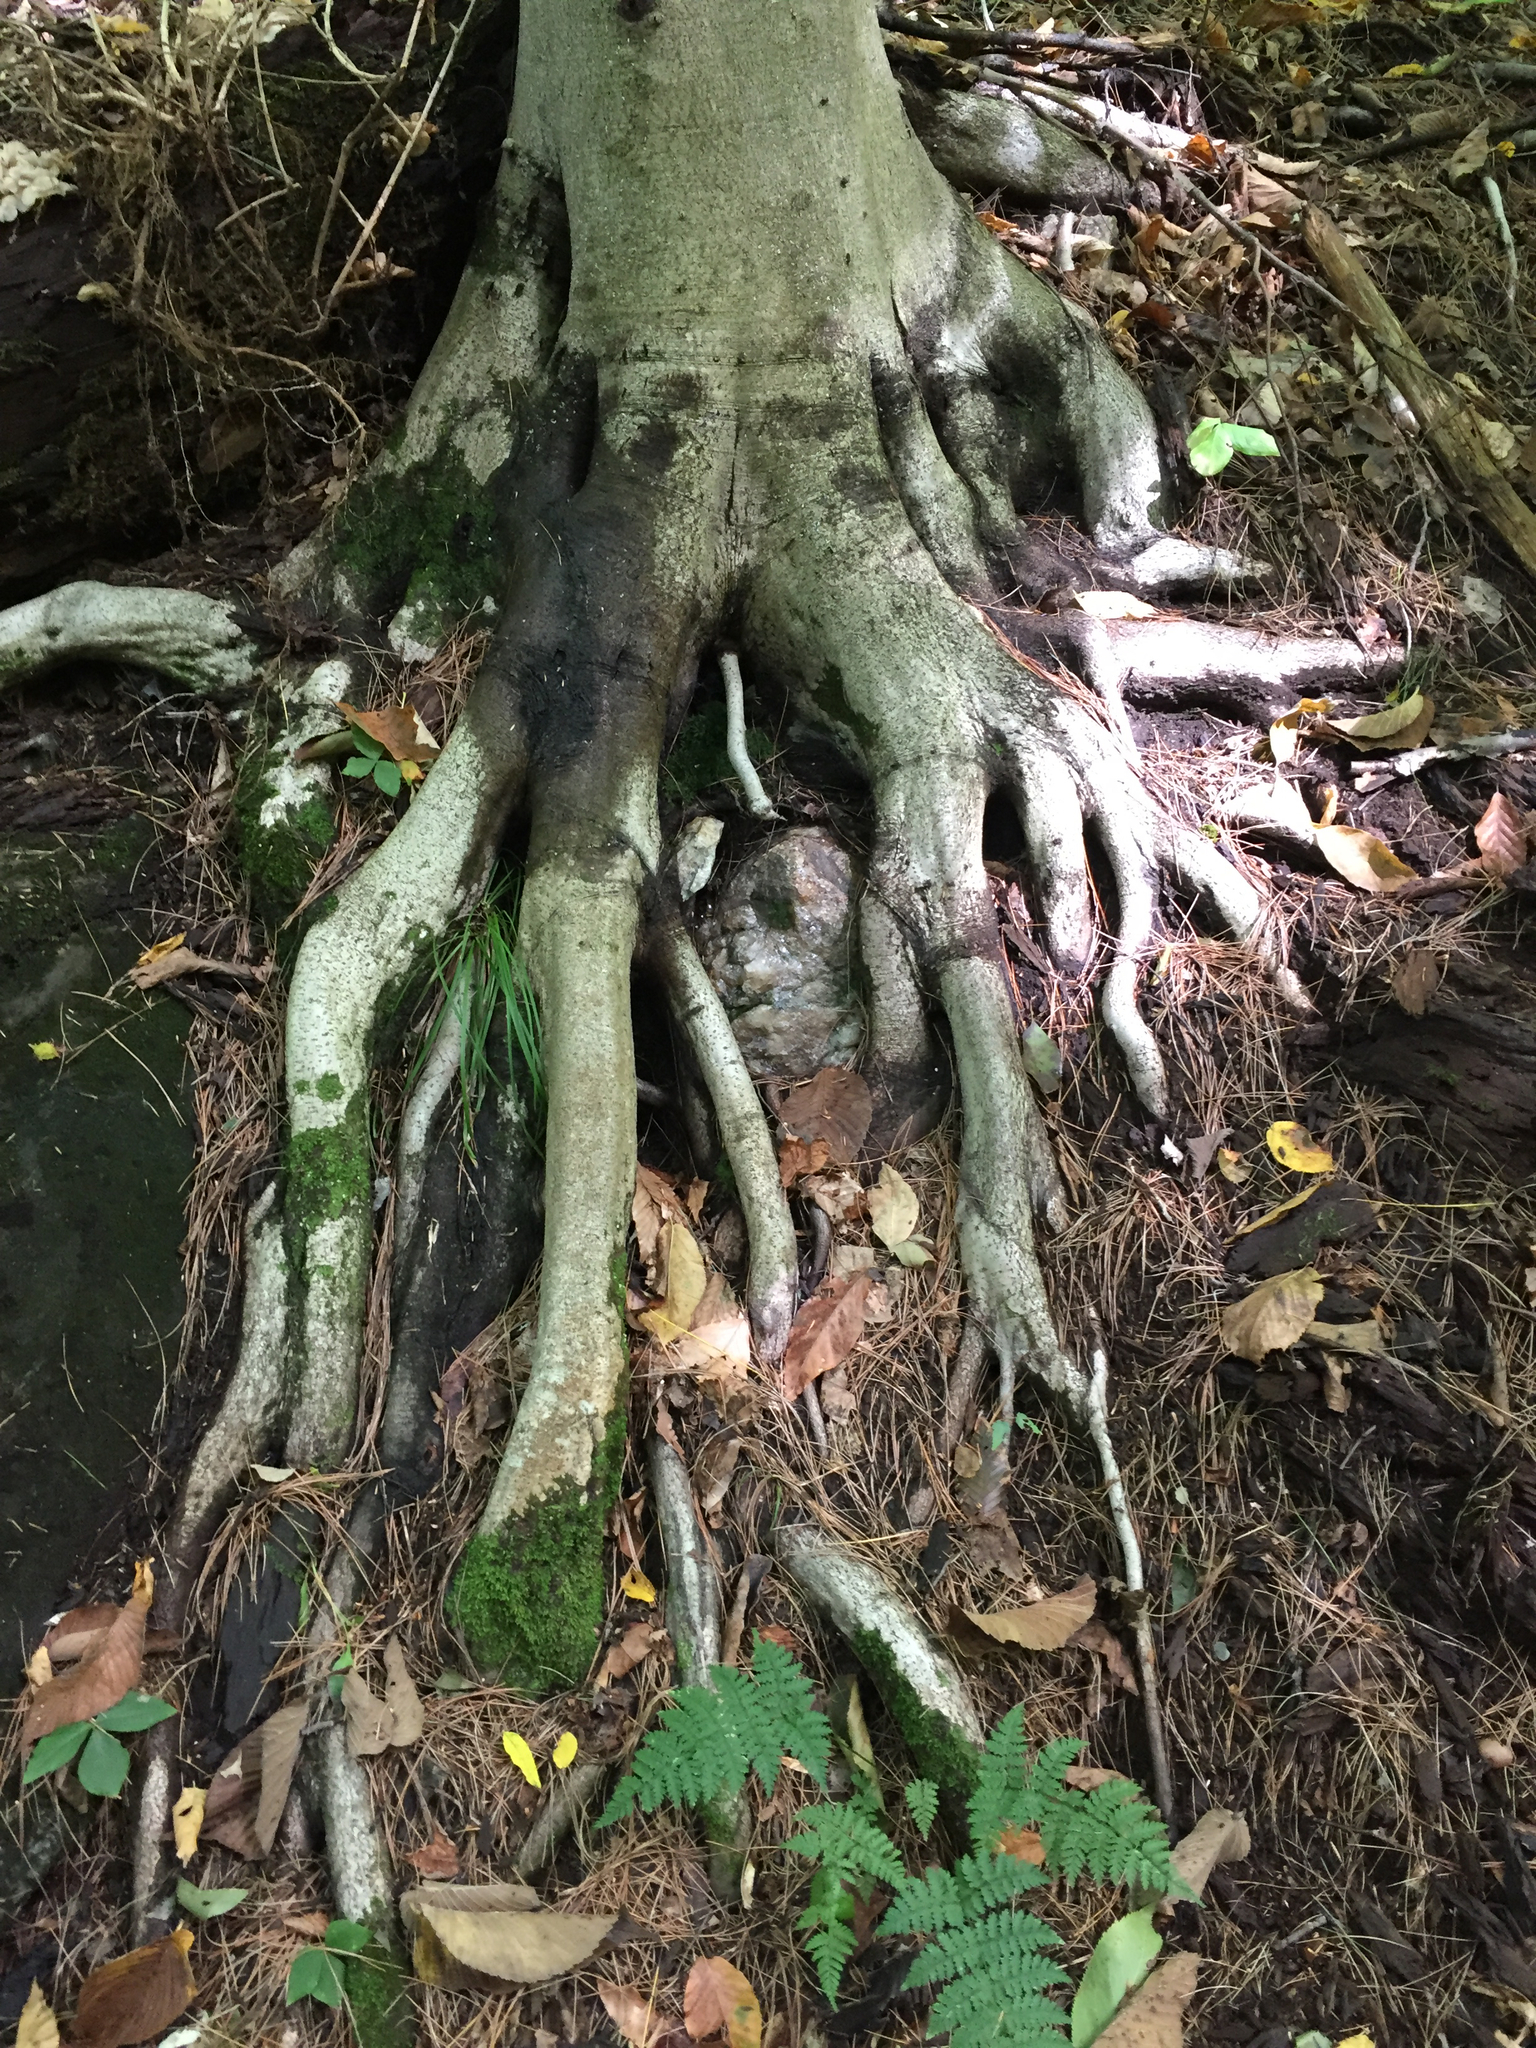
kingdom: Plantae
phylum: Tracheophyta
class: Magnoliopsida
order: Fagales
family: Fagaceae
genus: Fagus
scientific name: Fagus grandifolia
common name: American beech
